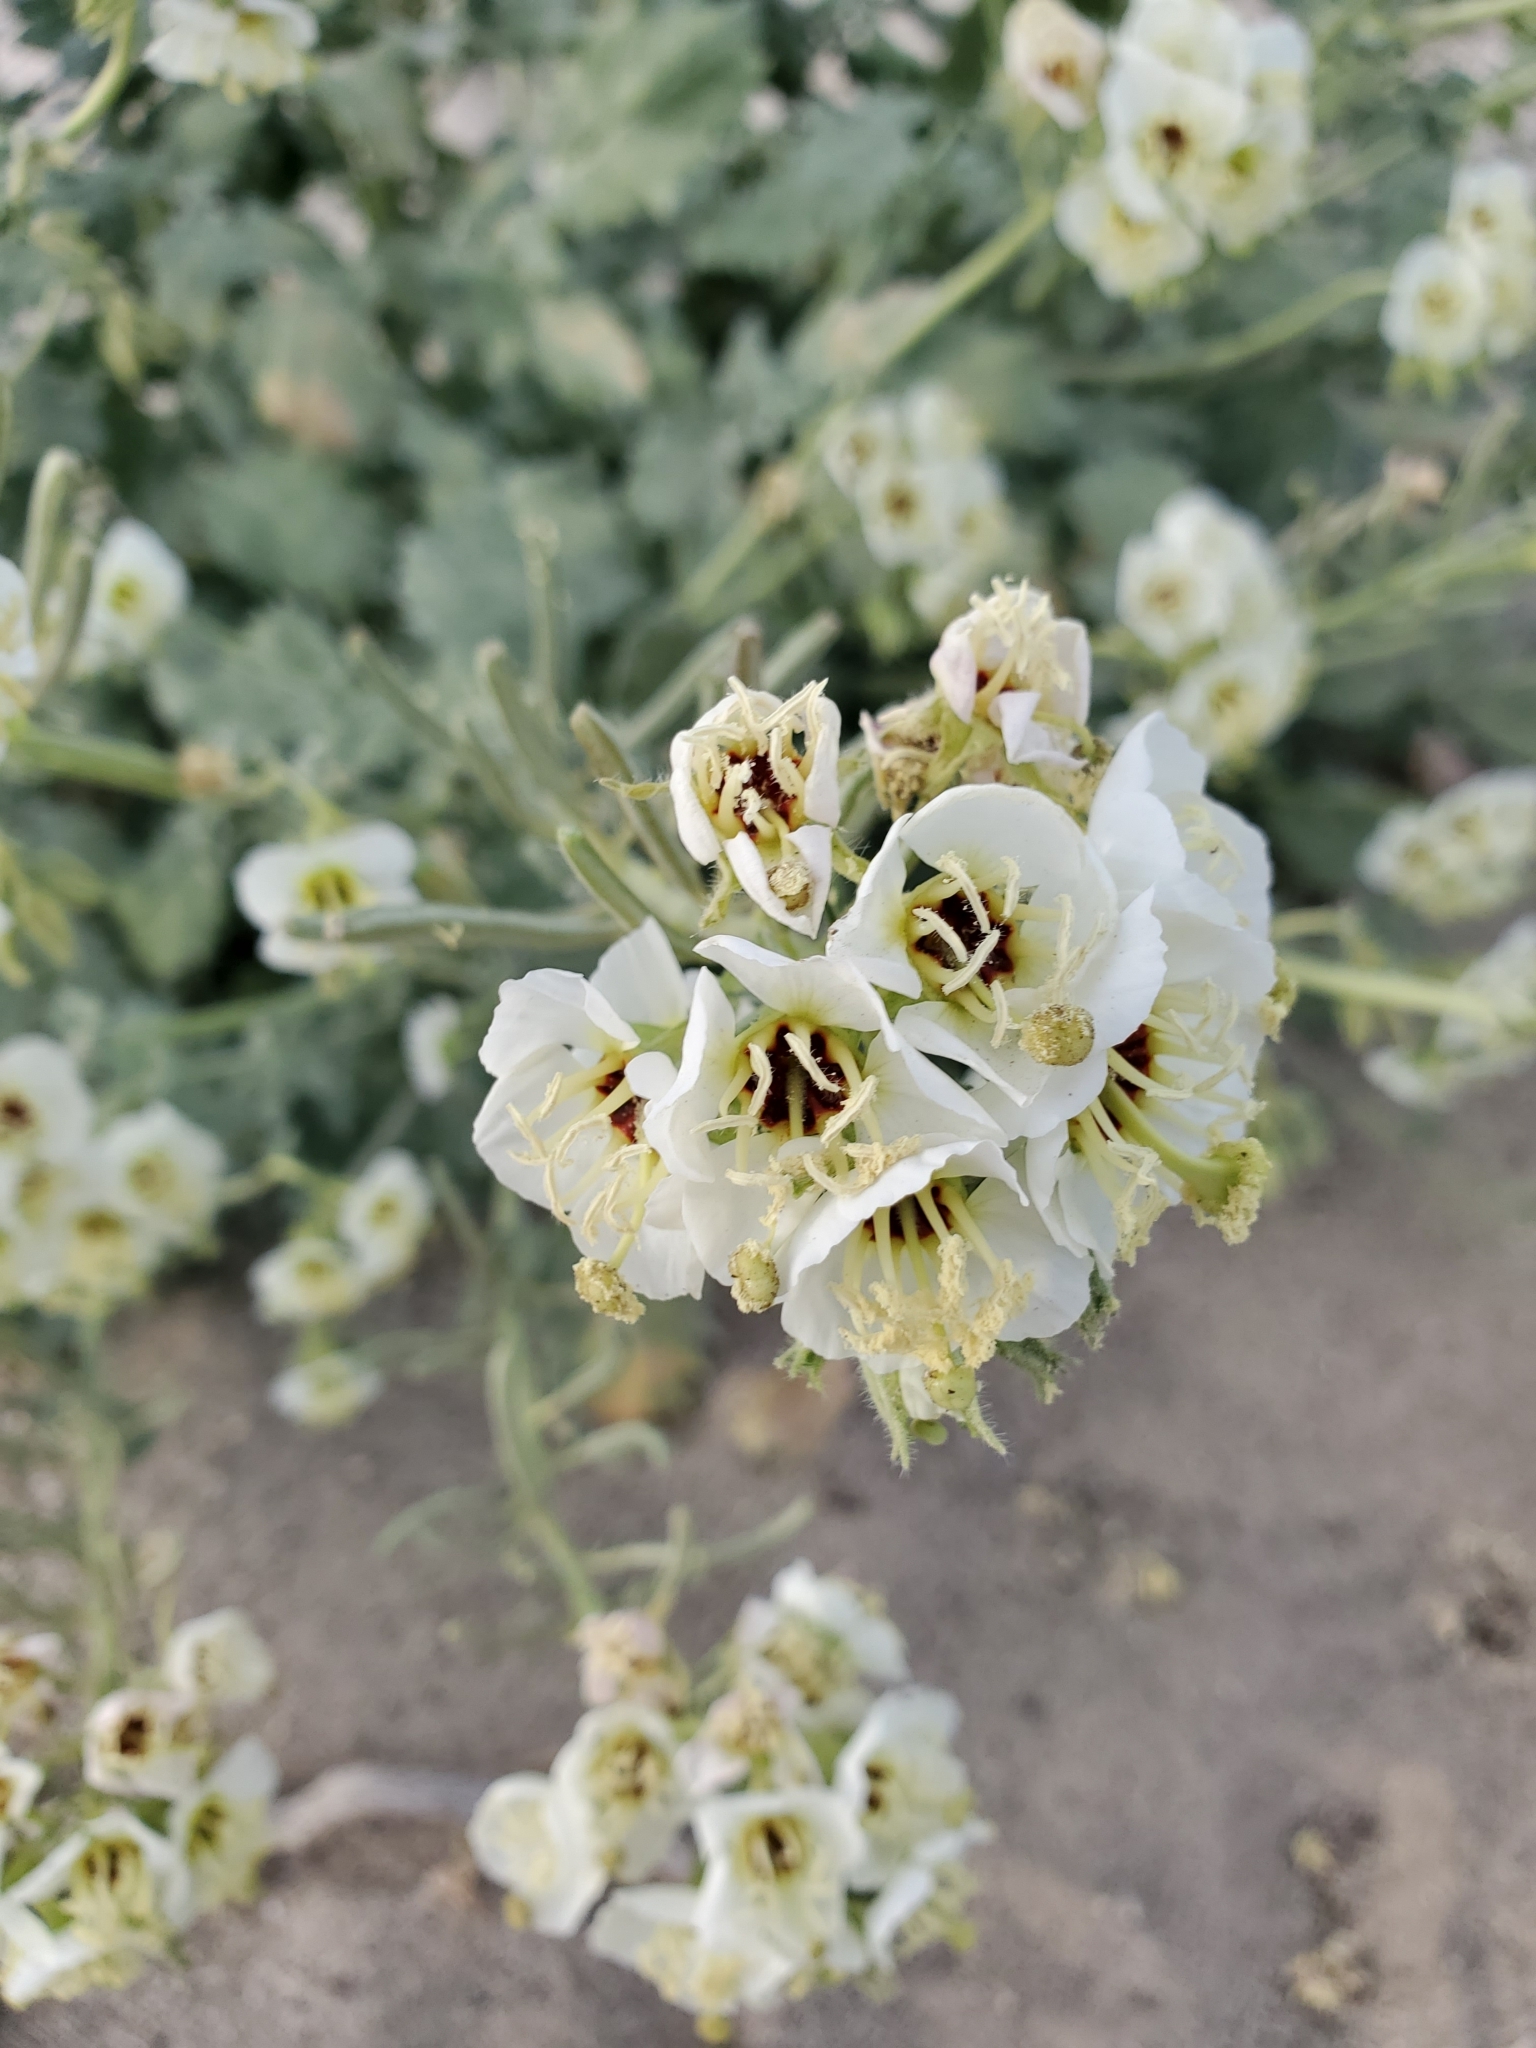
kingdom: Plantae
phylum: Tracheophyta
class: Magnoliopsida
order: Myrtales
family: Onagraceae
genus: Chylismia
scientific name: Chylismia claviformis
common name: Browneyes
